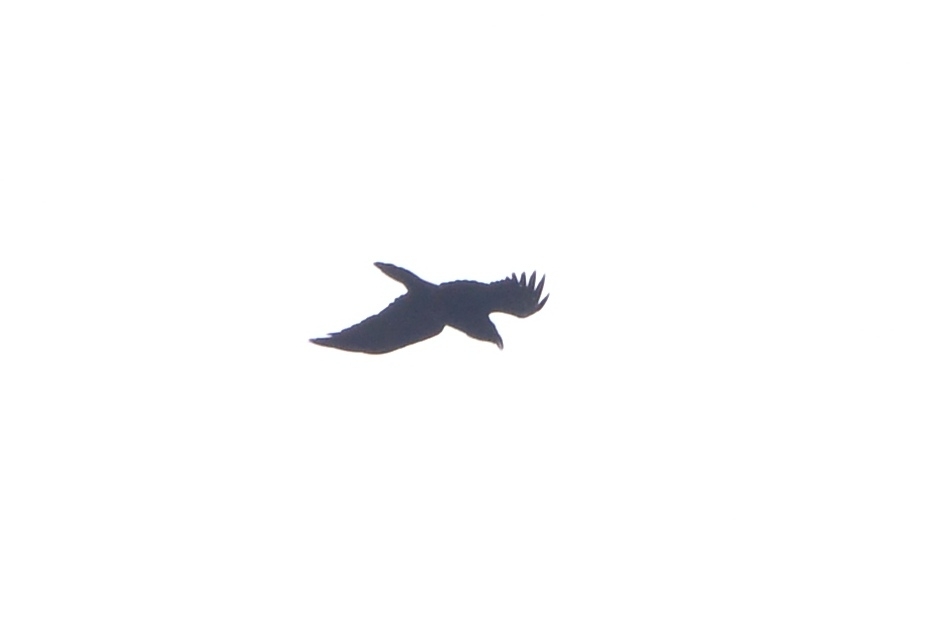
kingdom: Animalia
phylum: Chordata
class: Aves
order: Passeriformes
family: Corvidae
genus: Corvus
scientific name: Corvus corax
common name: Common raven
